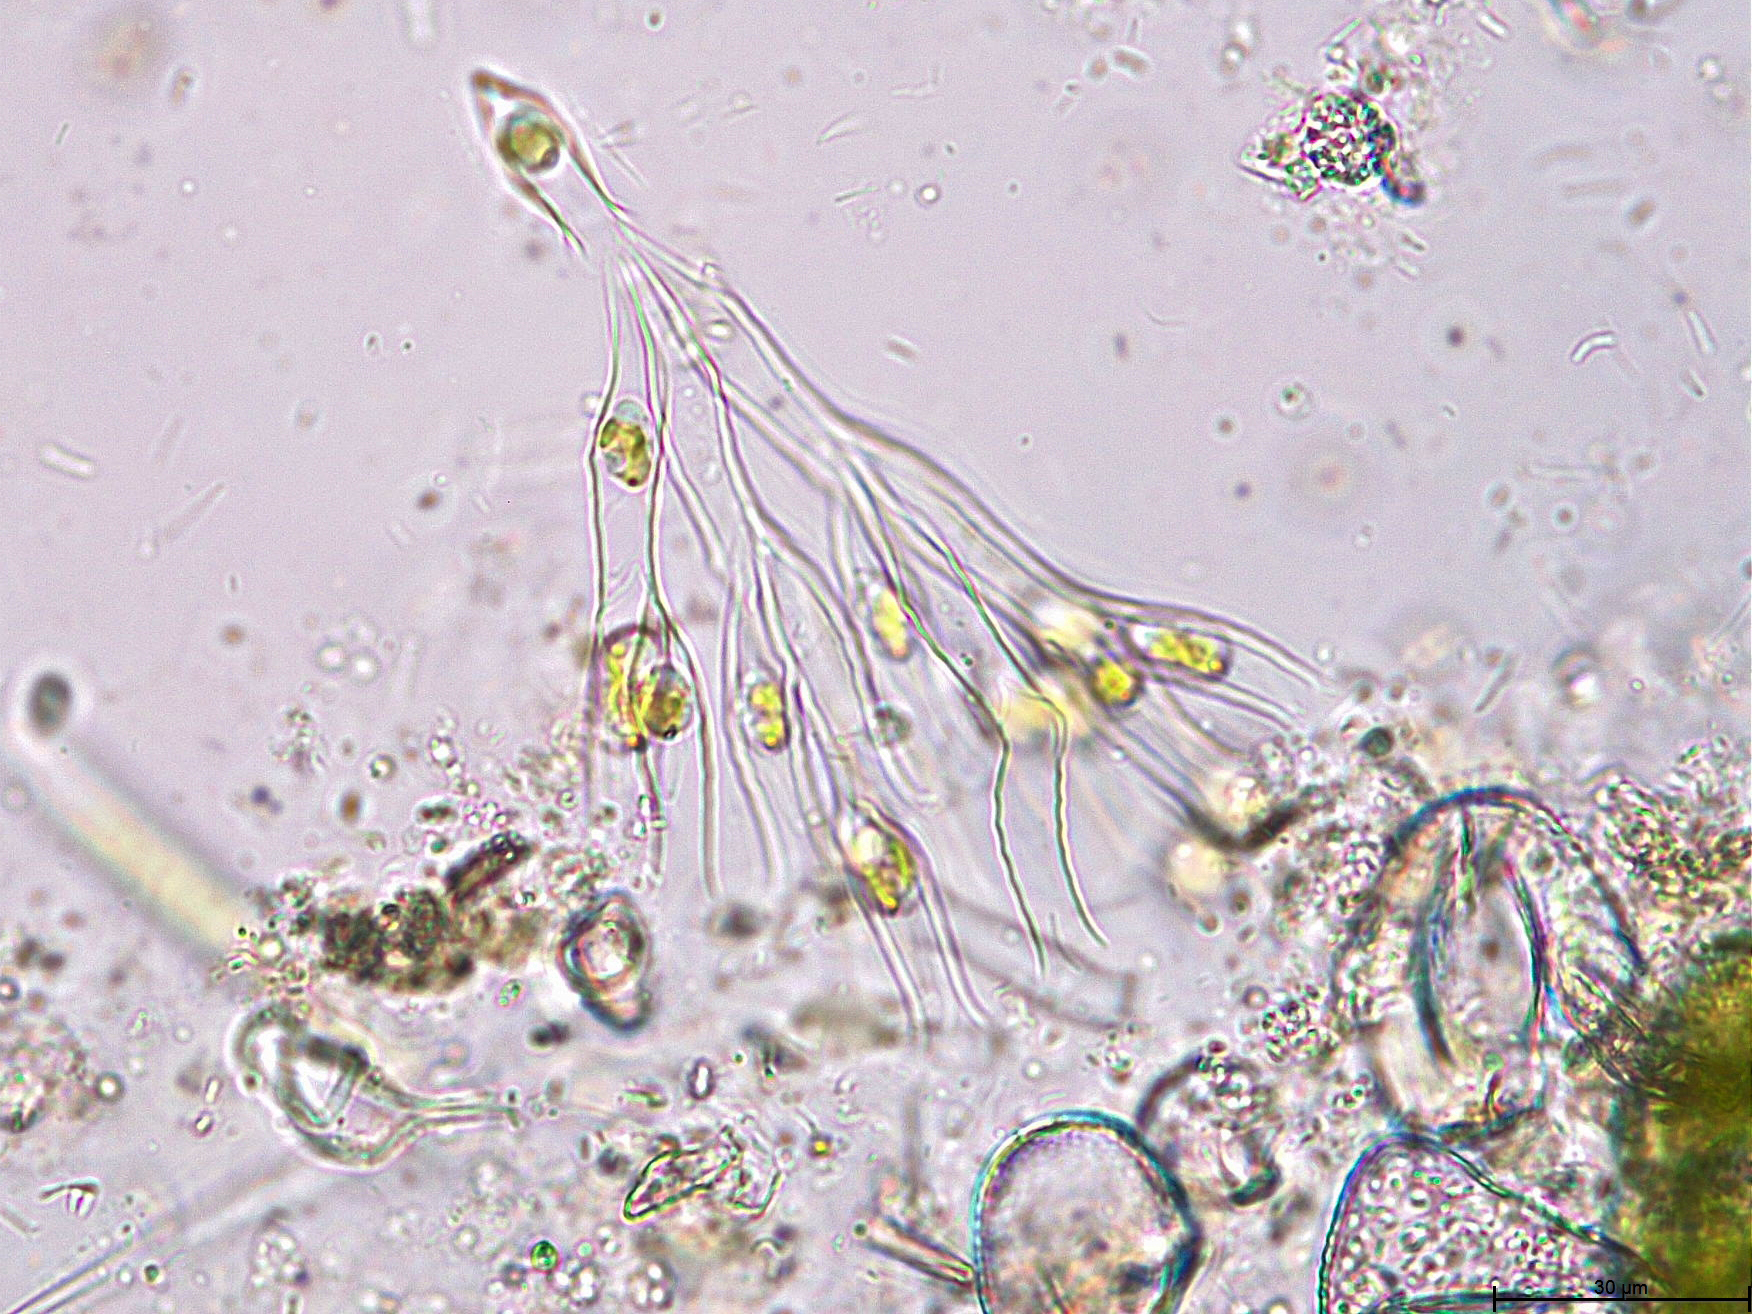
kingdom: Chromista
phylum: Ochrophyta
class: Chrysophyceae
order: Chromulinales
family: Dinobryaceae
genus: Dinobryon
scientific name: Dinobryon pediforme
